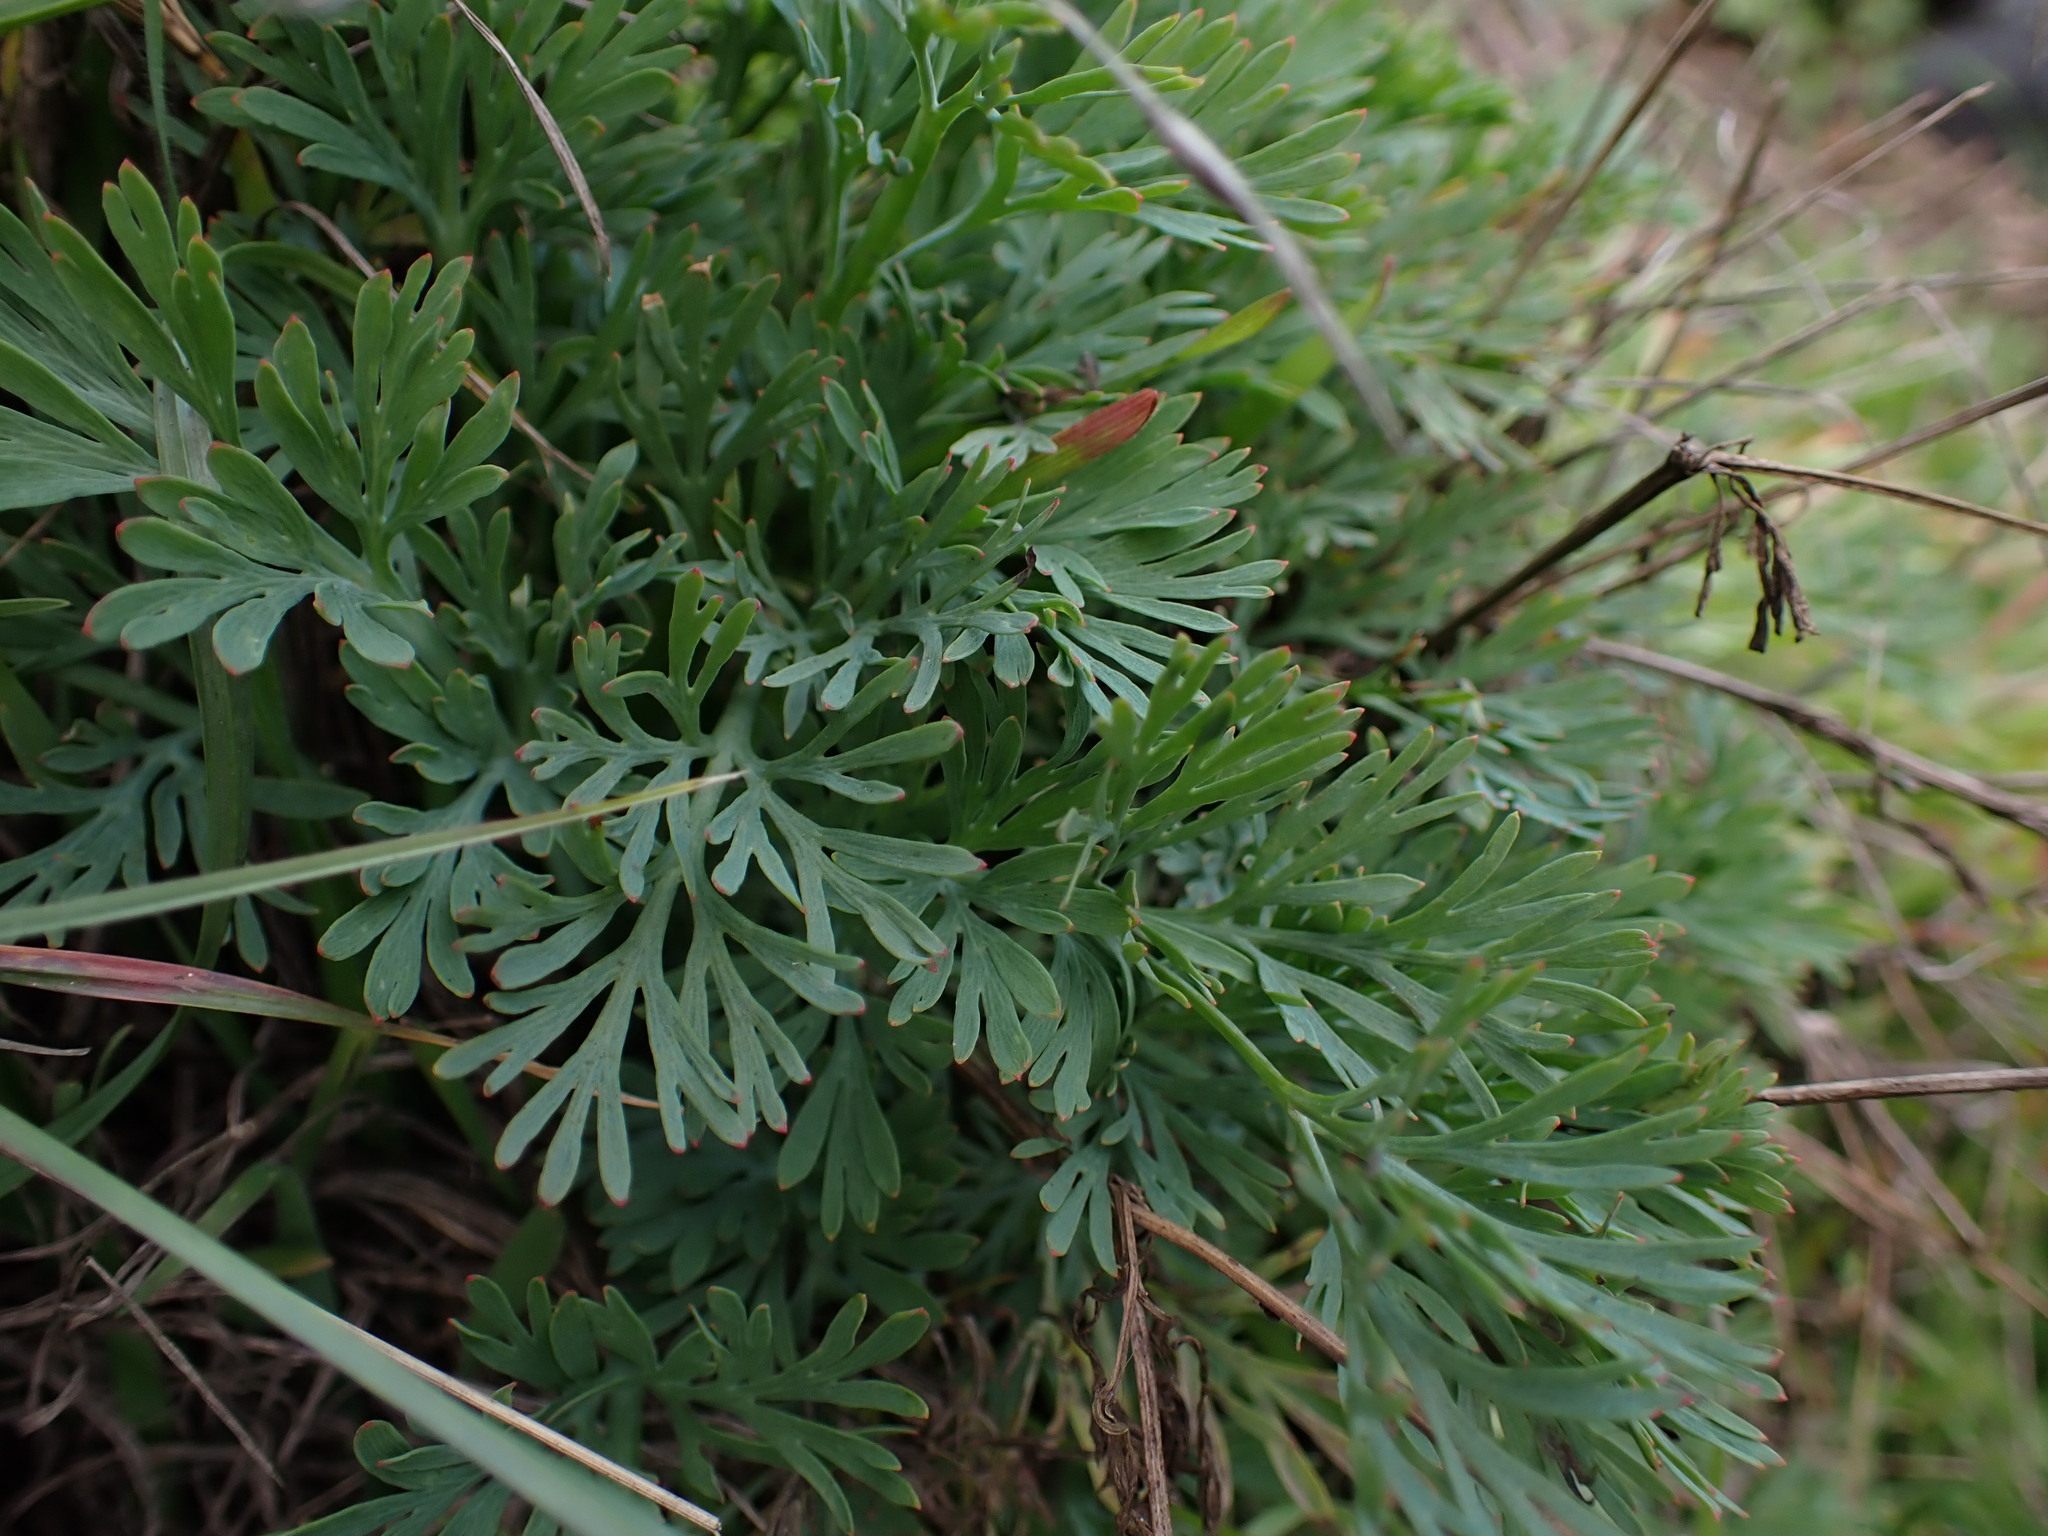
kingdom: Plantae
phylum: Tracheophyta
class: Magnoliopsida
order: Ranunculales
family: Papaveraceae
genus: Eschscholzia
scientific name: Eschscholzia californica
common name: California poppy
